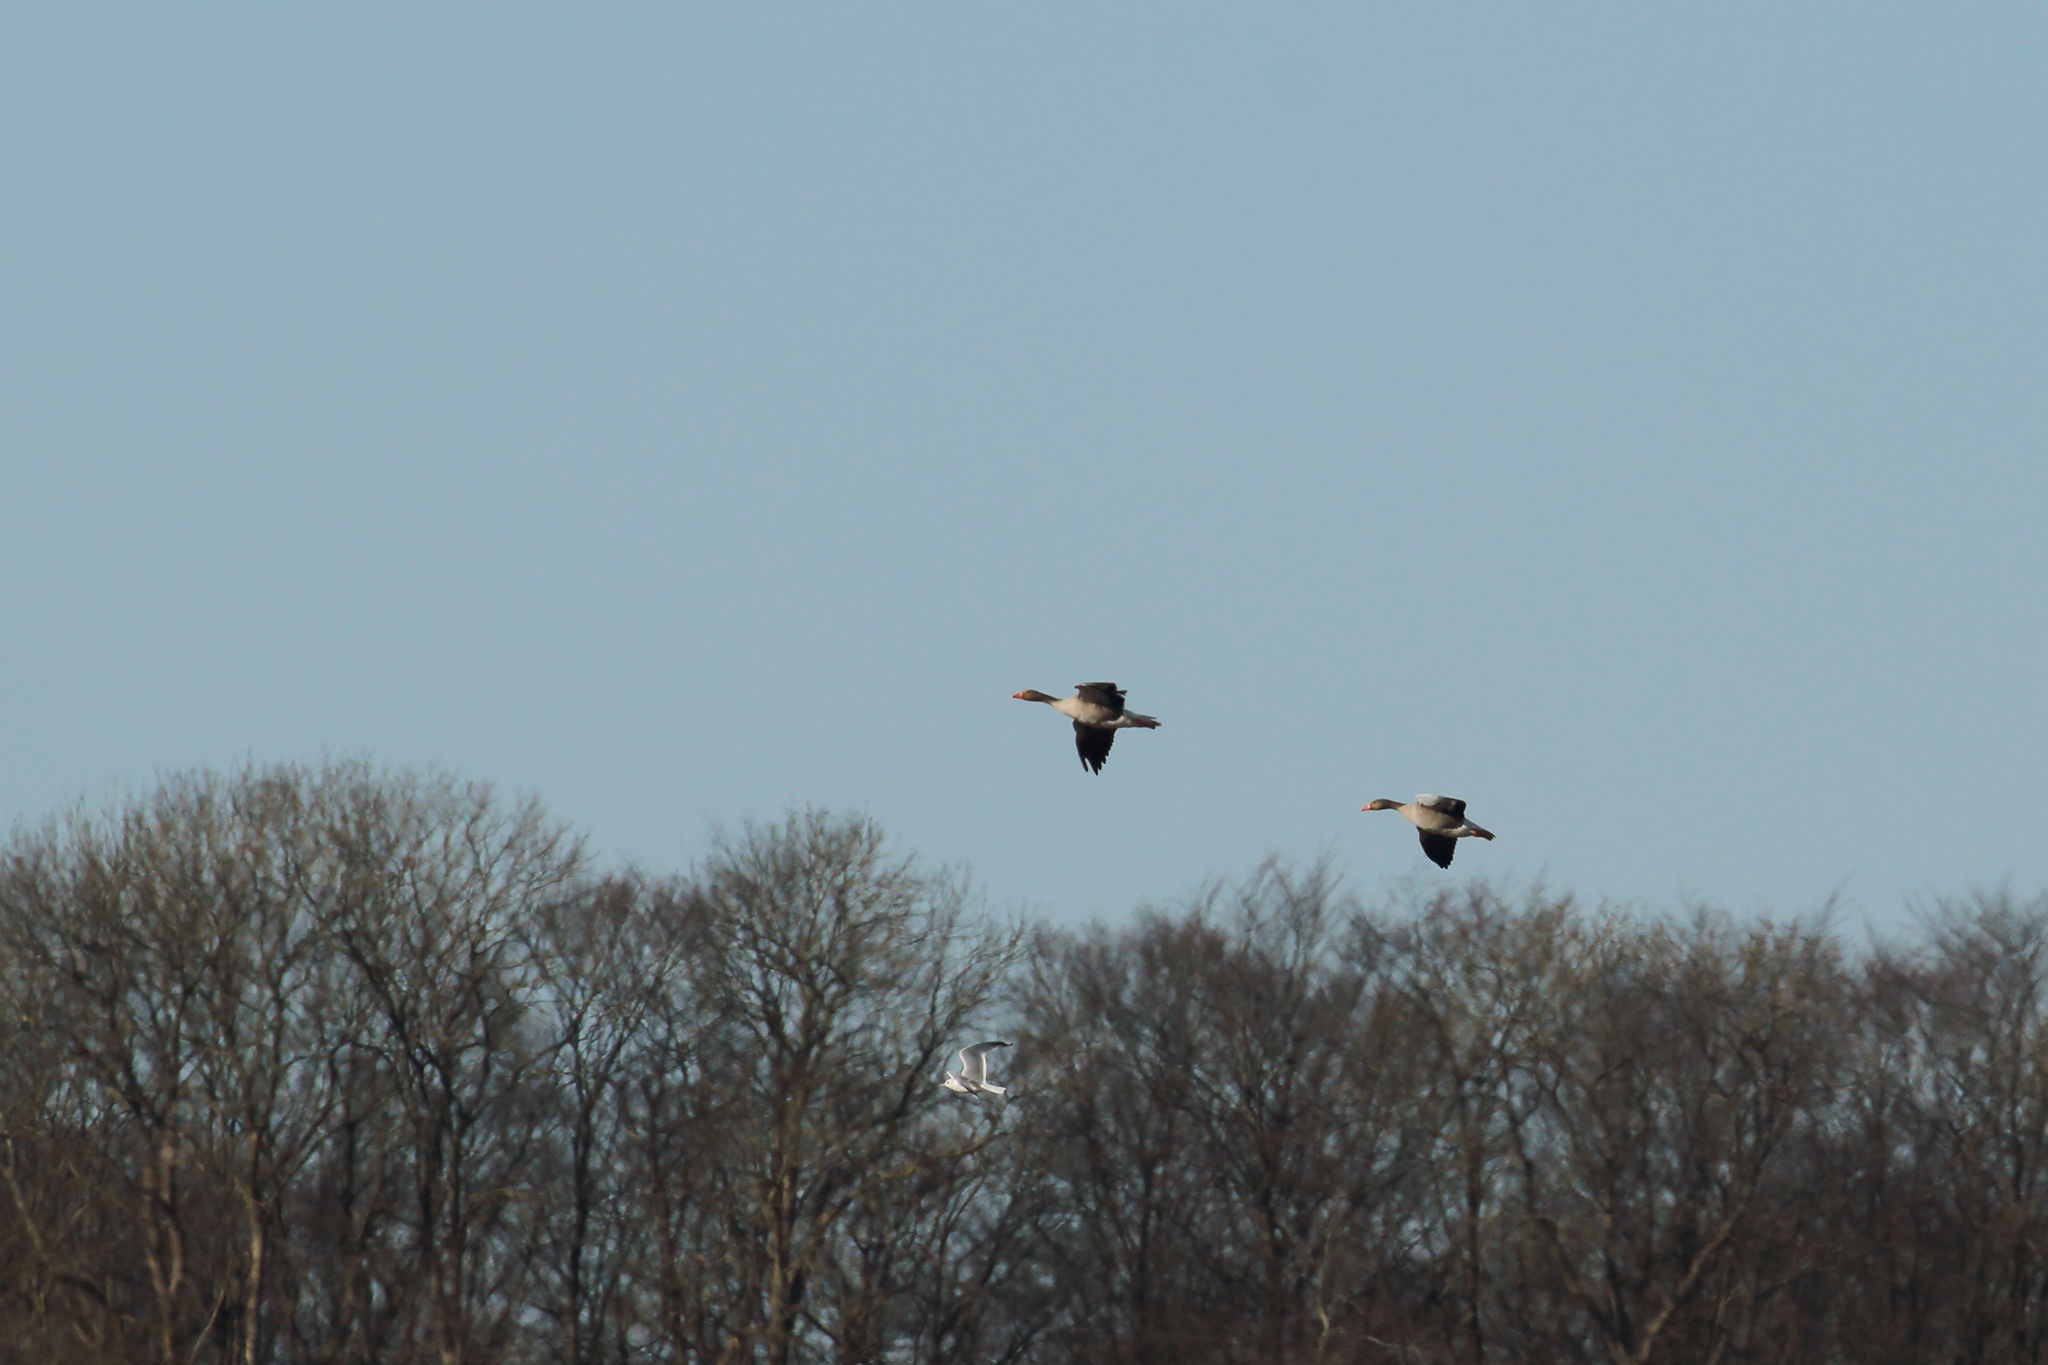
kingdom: Animalia
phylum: Chordata
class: Aves
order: Anseriformes
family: Anatidae
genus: Anser
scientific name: Anser anser
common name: Greylag goose
